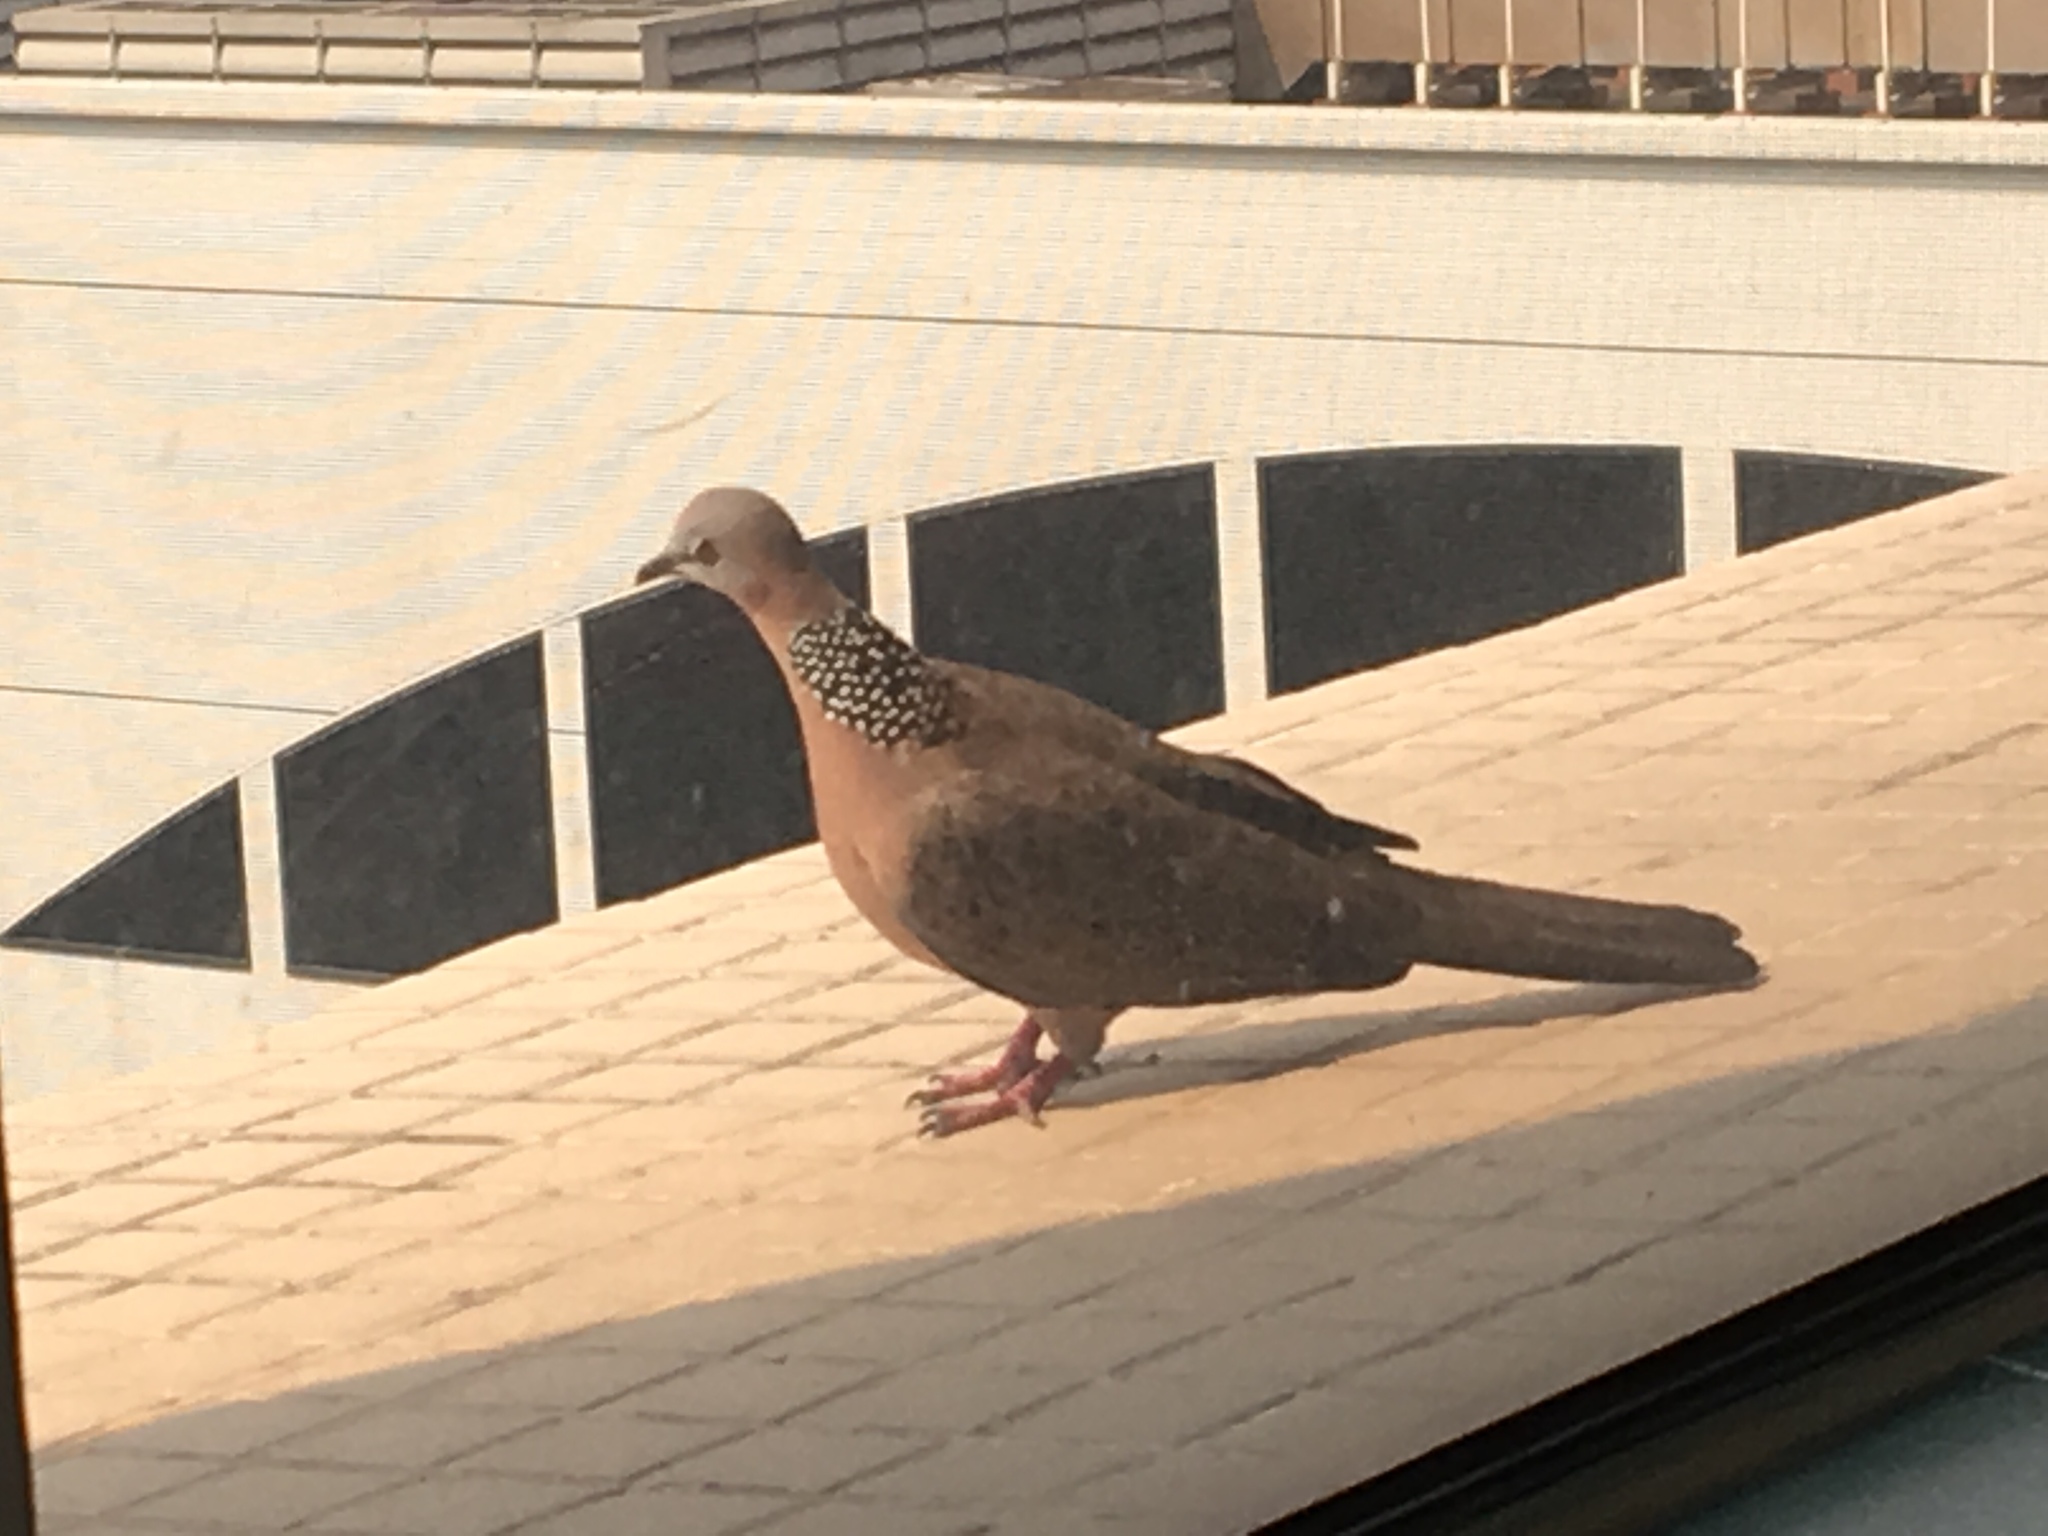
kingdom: Animalia
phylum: Chordata
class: Aves
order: Columbiformes
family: Columbidae
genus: Spilopelia
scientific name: Spilopelia chinensis
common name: Spotted dove
